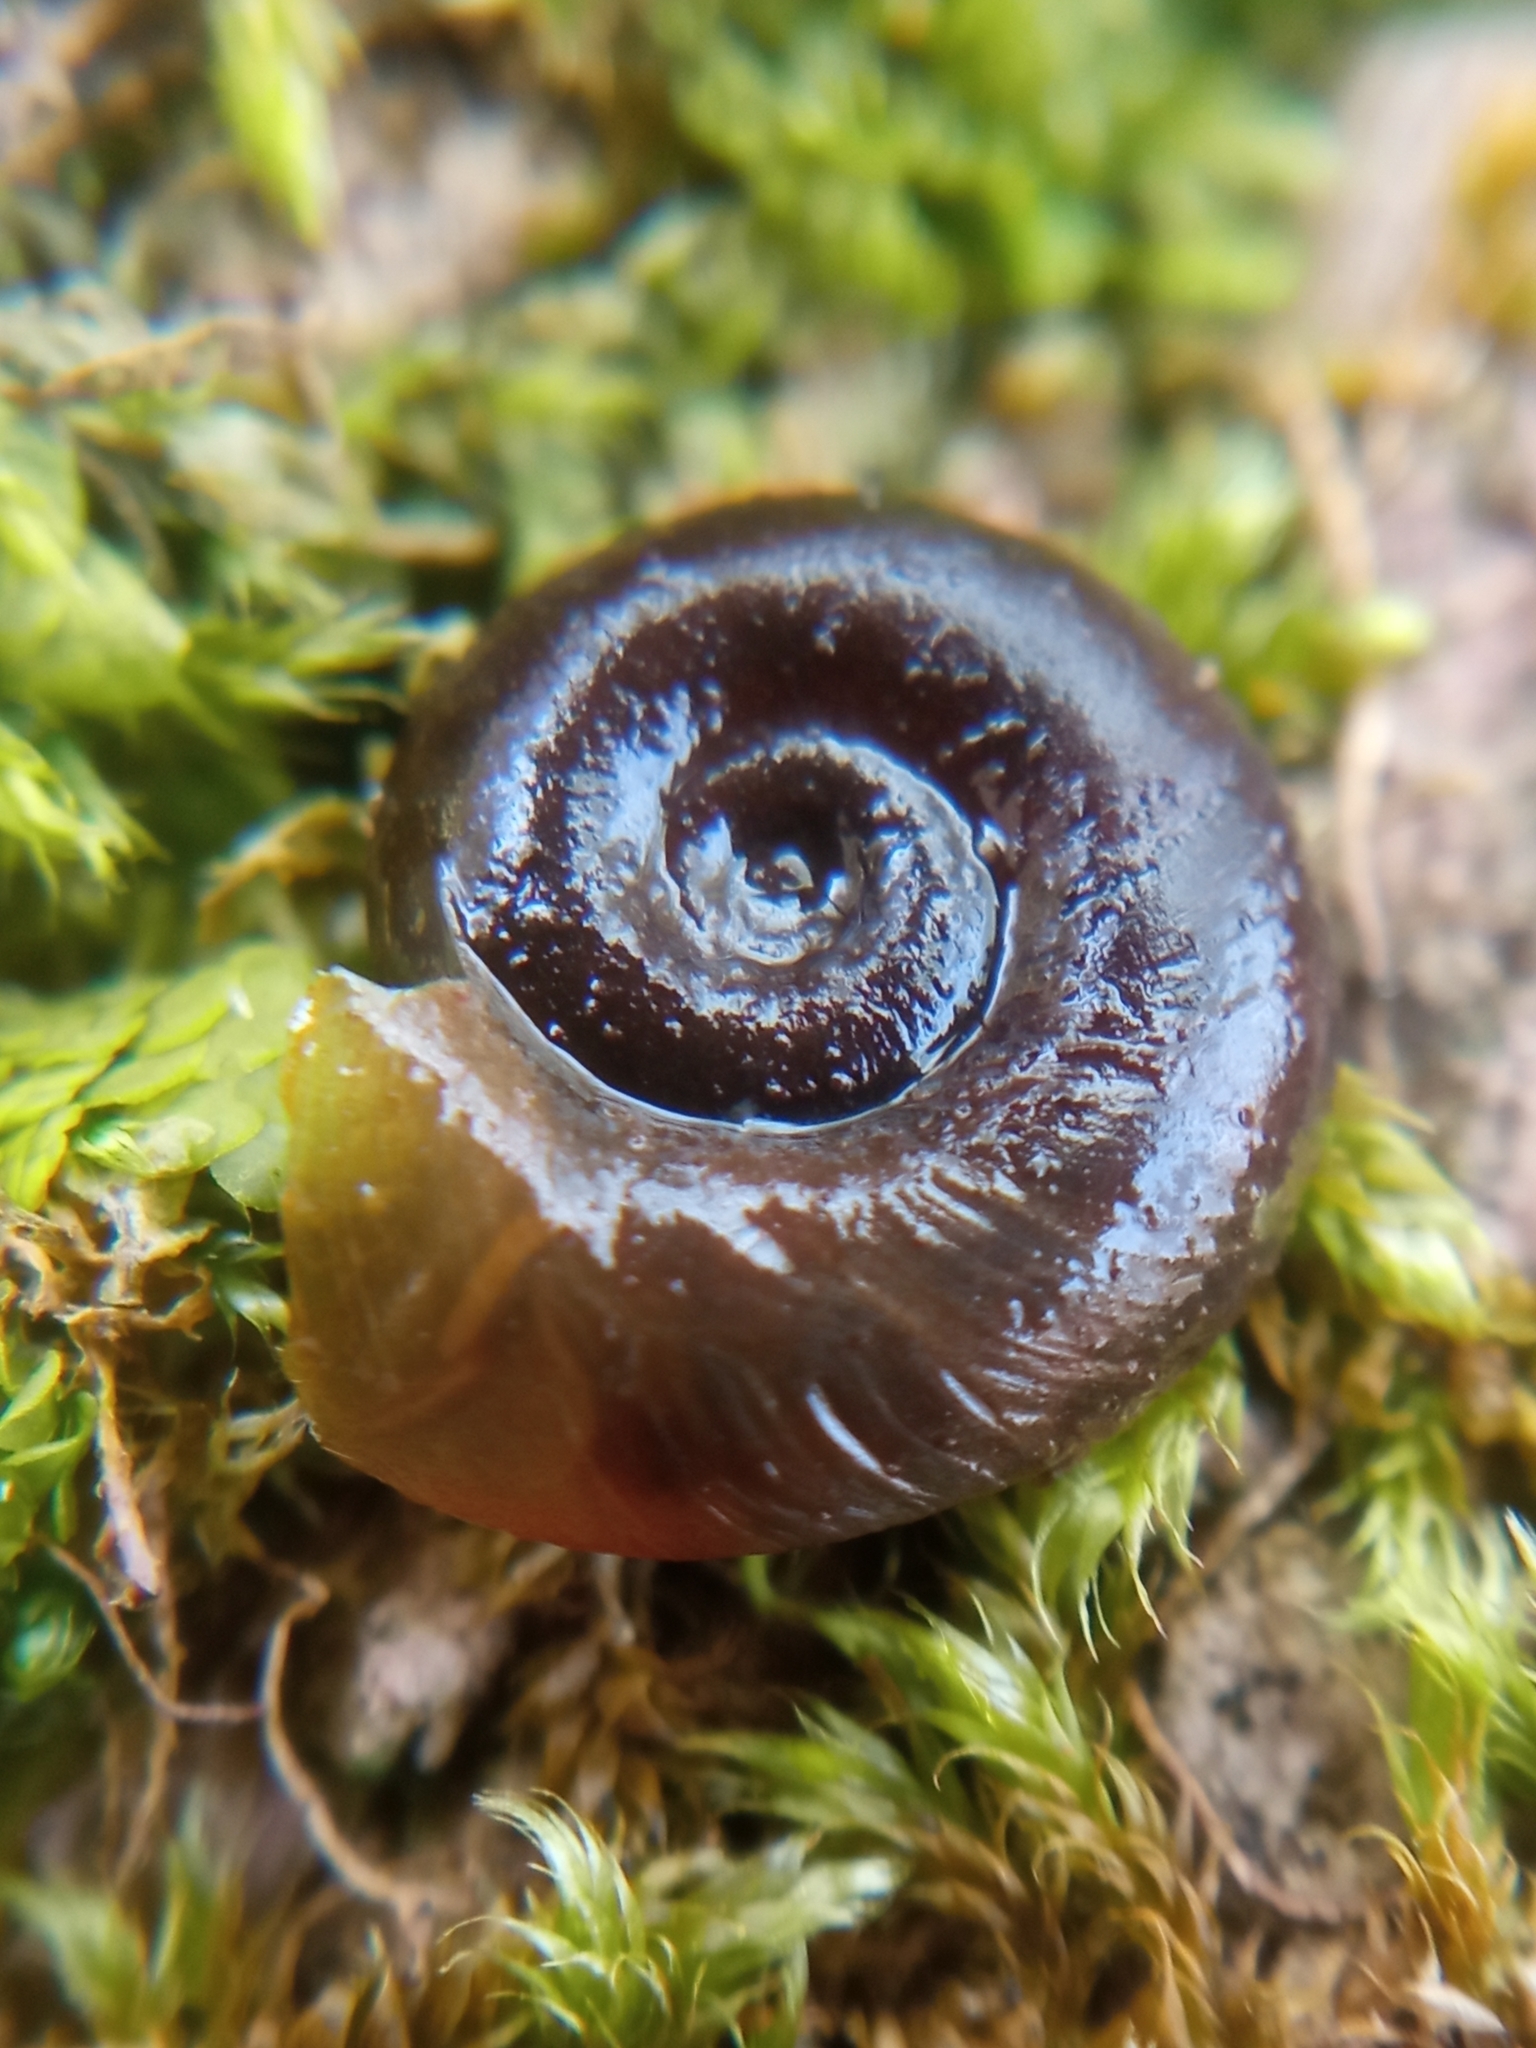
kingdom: Animalia
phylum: Mollusca
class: Gastropoda
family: Planorbidae
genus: Planorbis
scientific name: Planorbis carinatus
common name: Keeled ramshorn
